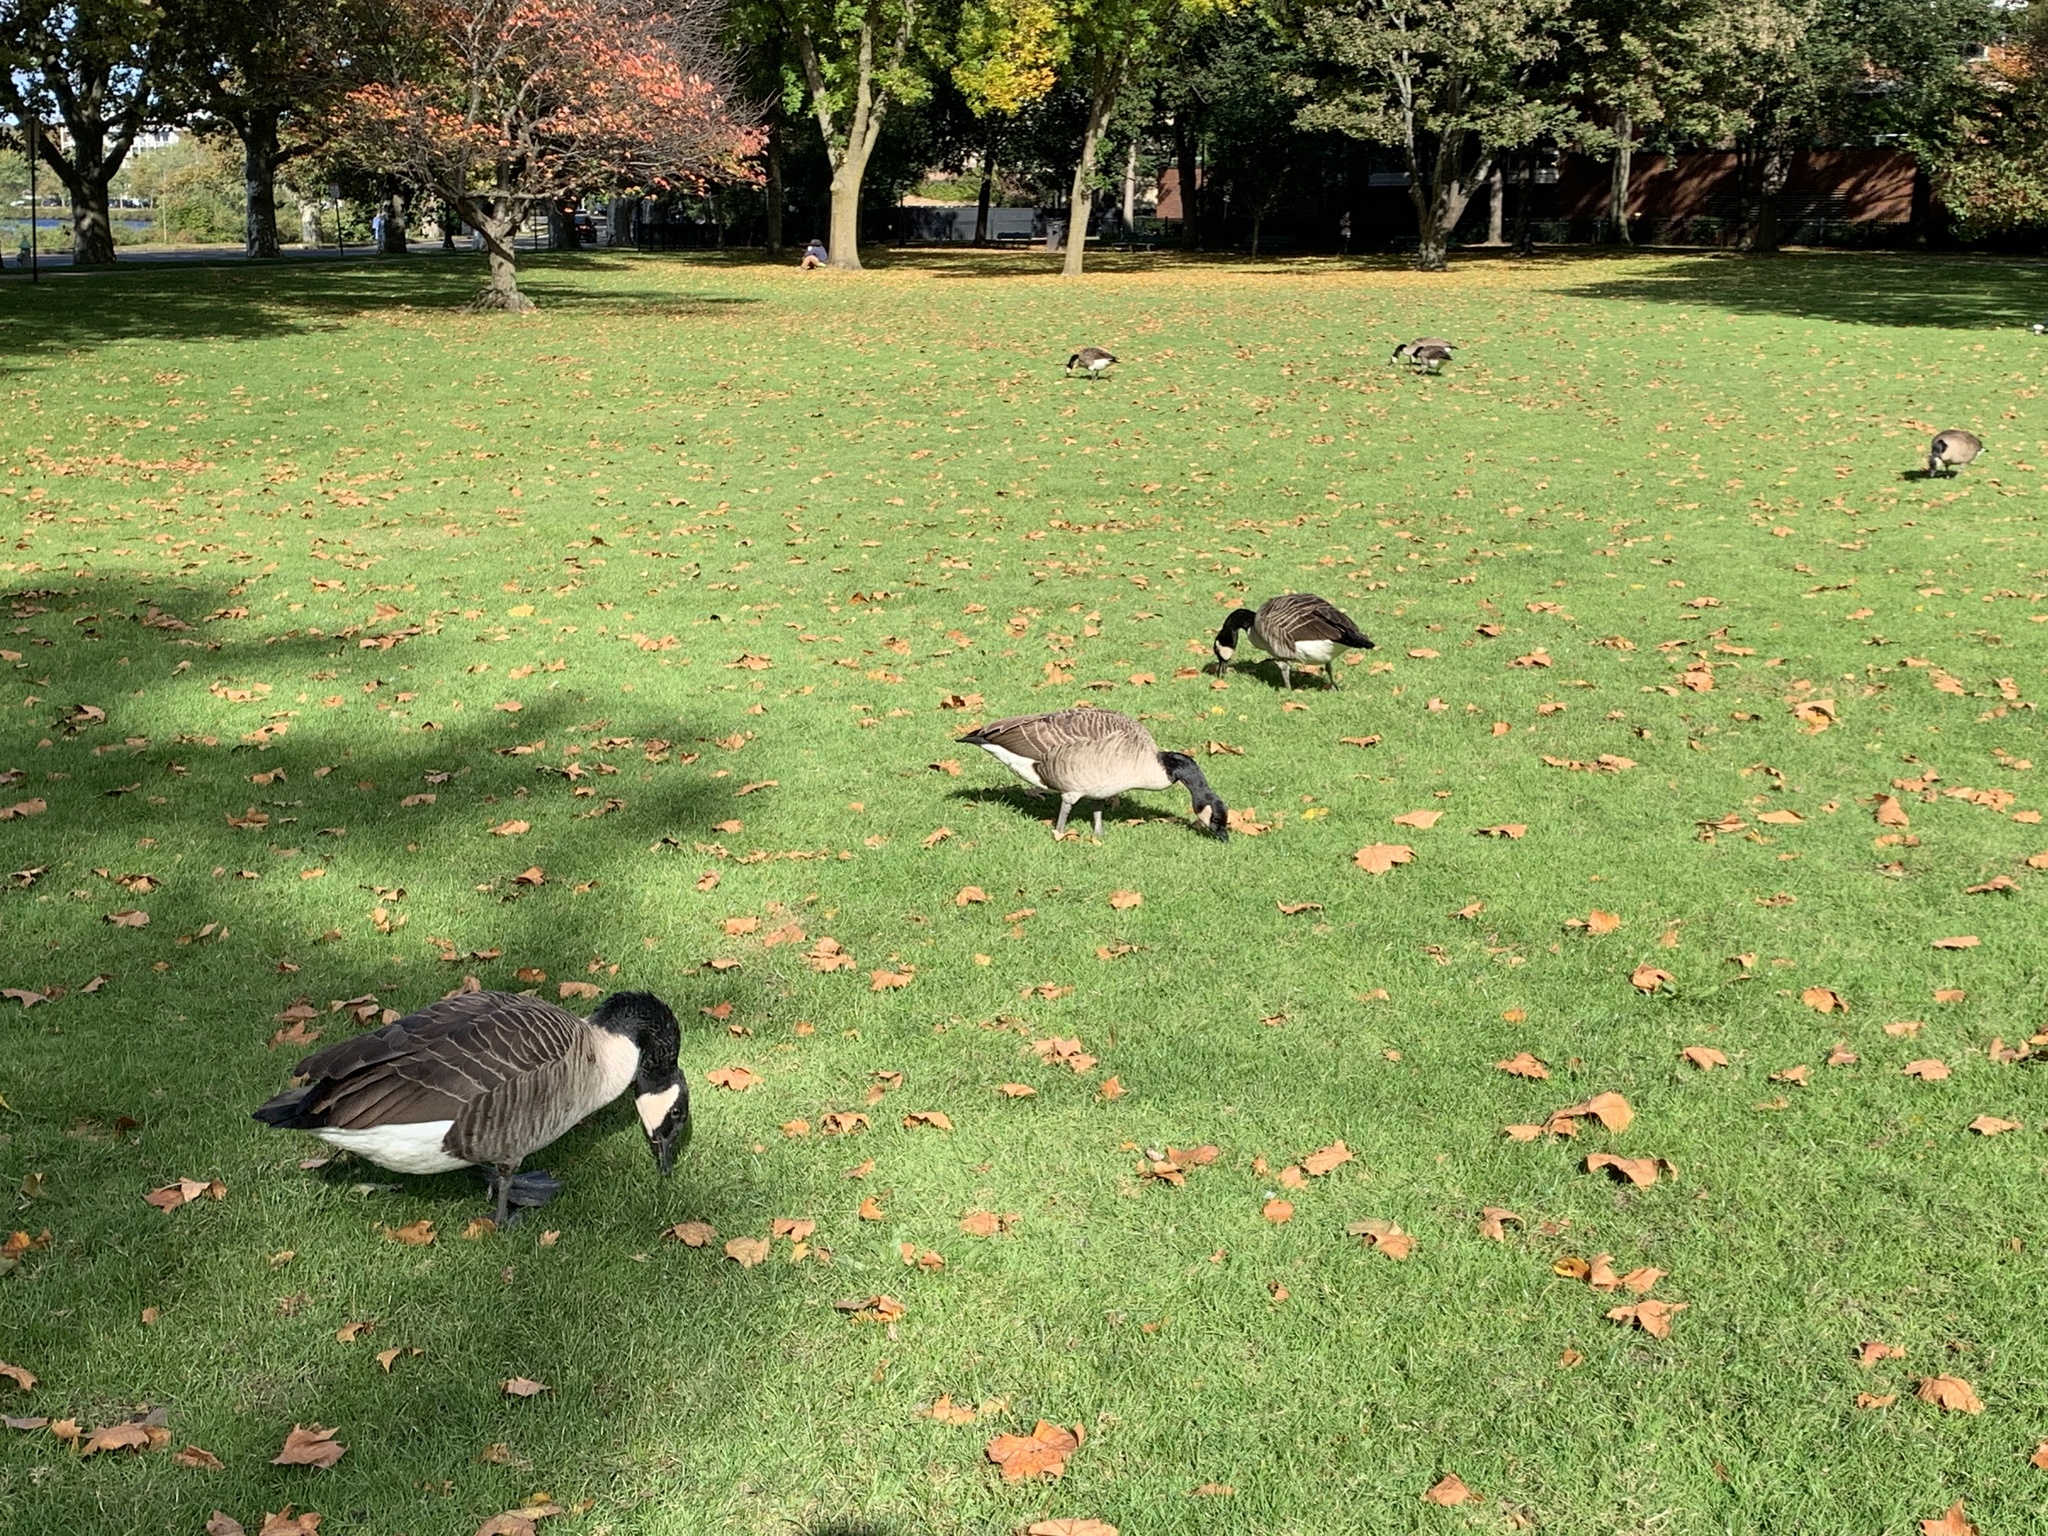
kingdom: Animalia
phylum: Chordata
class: Aves
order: Anseriformes
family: Anatidae
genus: Branta
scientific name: Branta canadensis
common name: Canada goose
